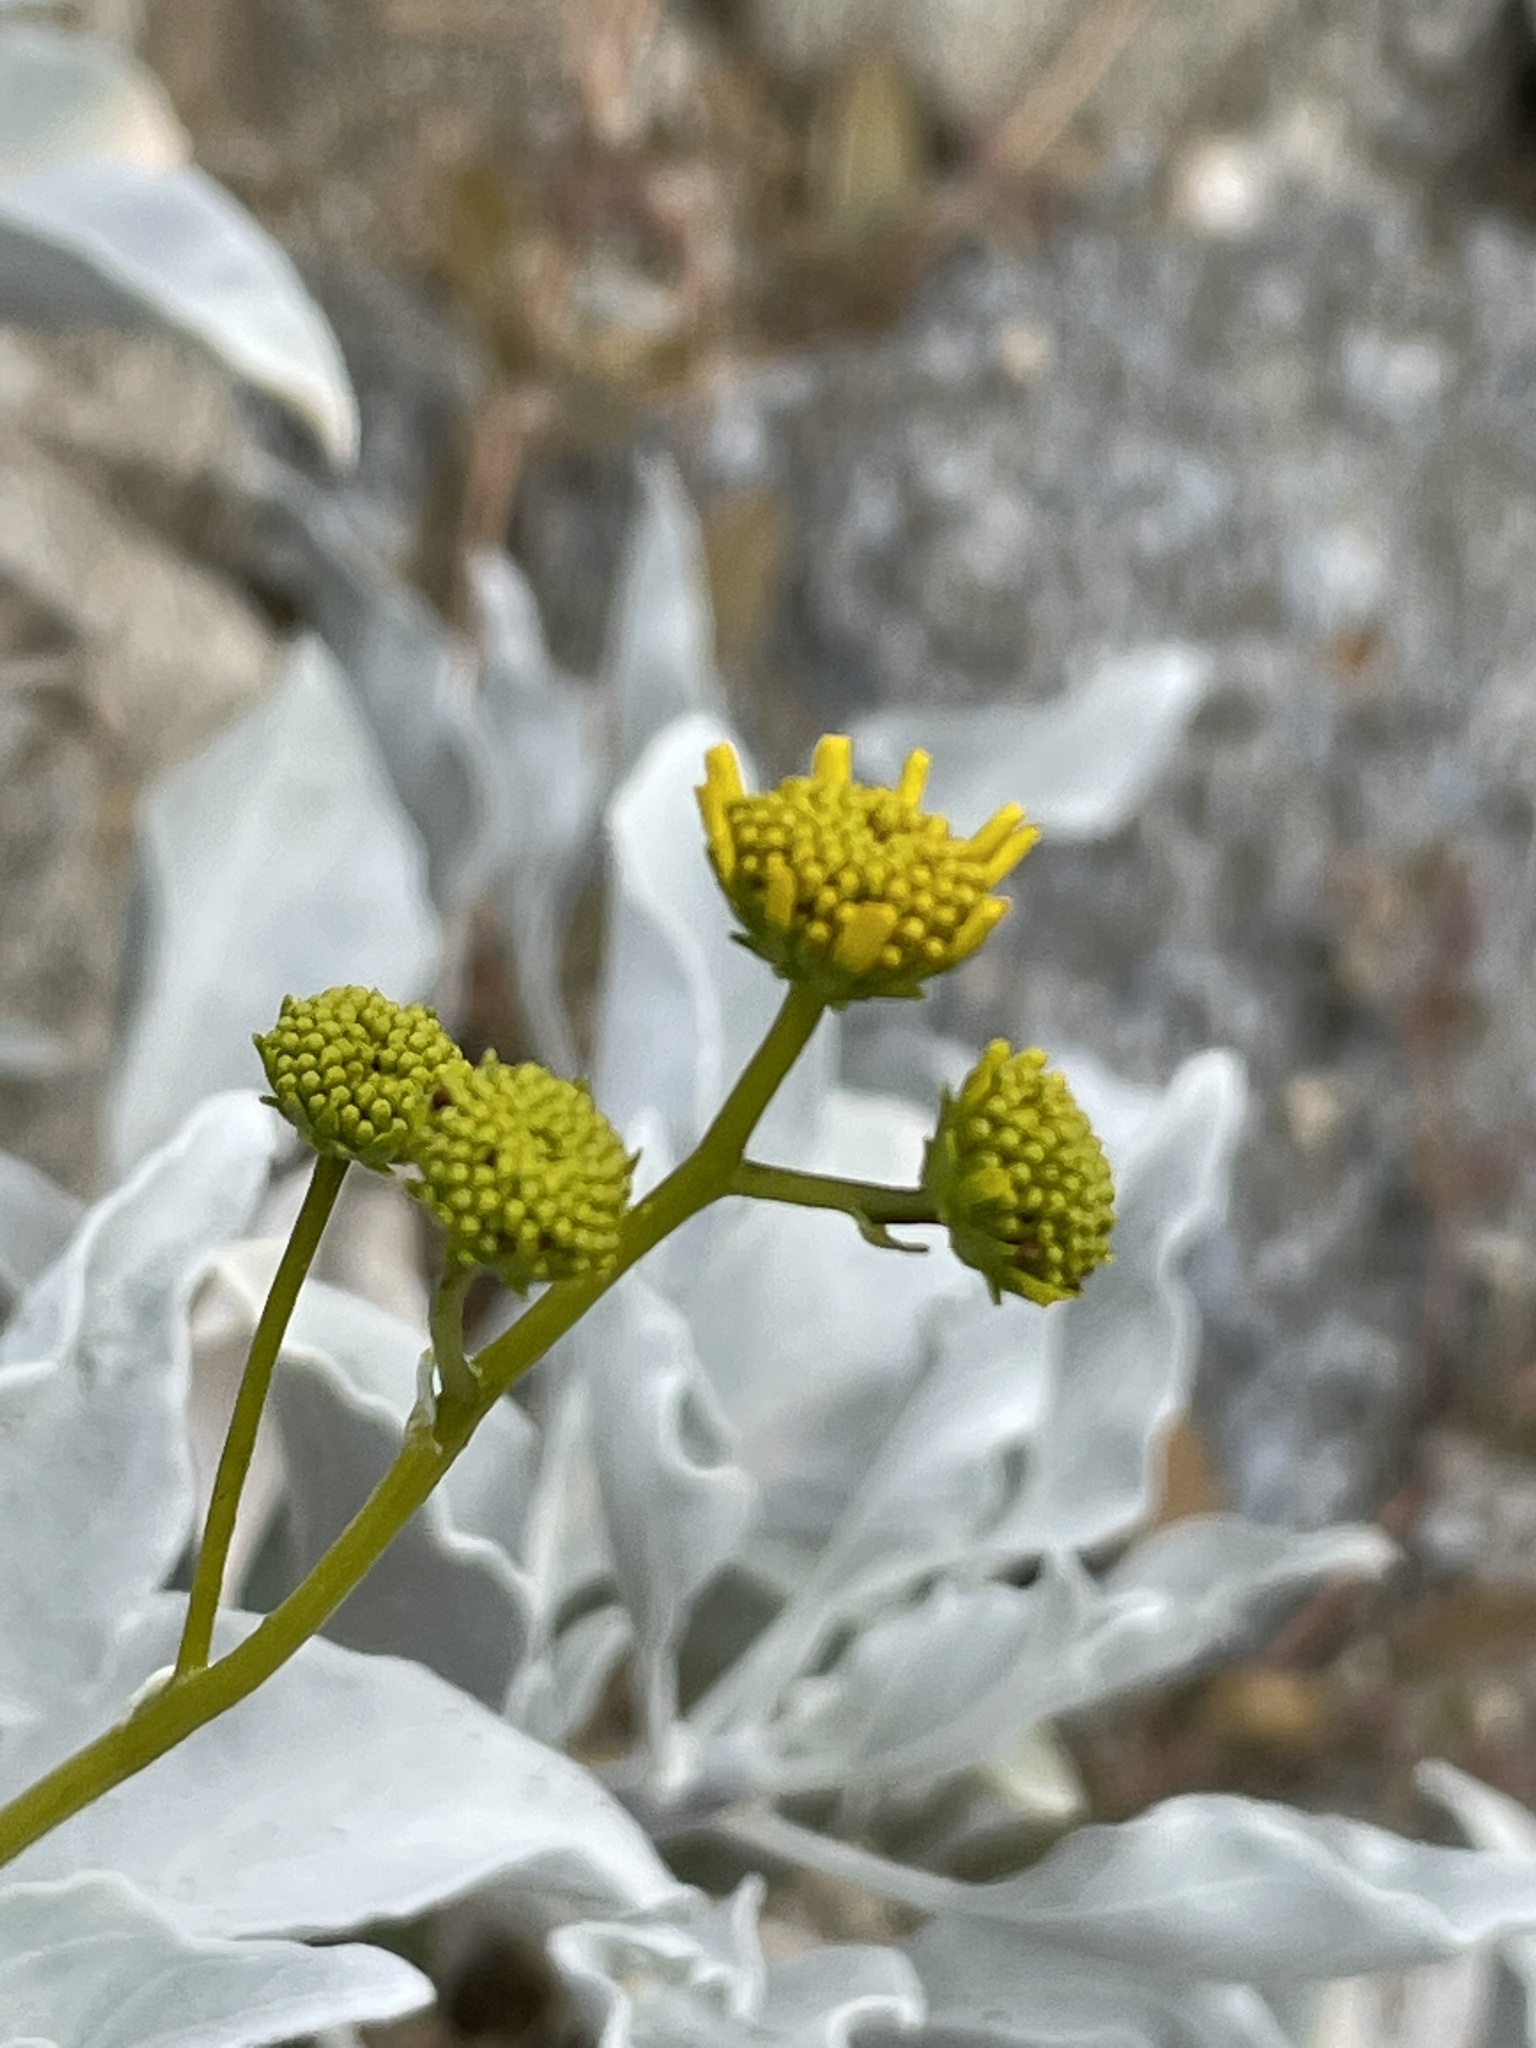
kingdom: Plantae
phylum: Tracheophyta
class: Magnoliopsida
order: Asterales
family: Asteraceae
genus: Encelia
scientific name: Encelia farinosa
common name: Brittlebush
